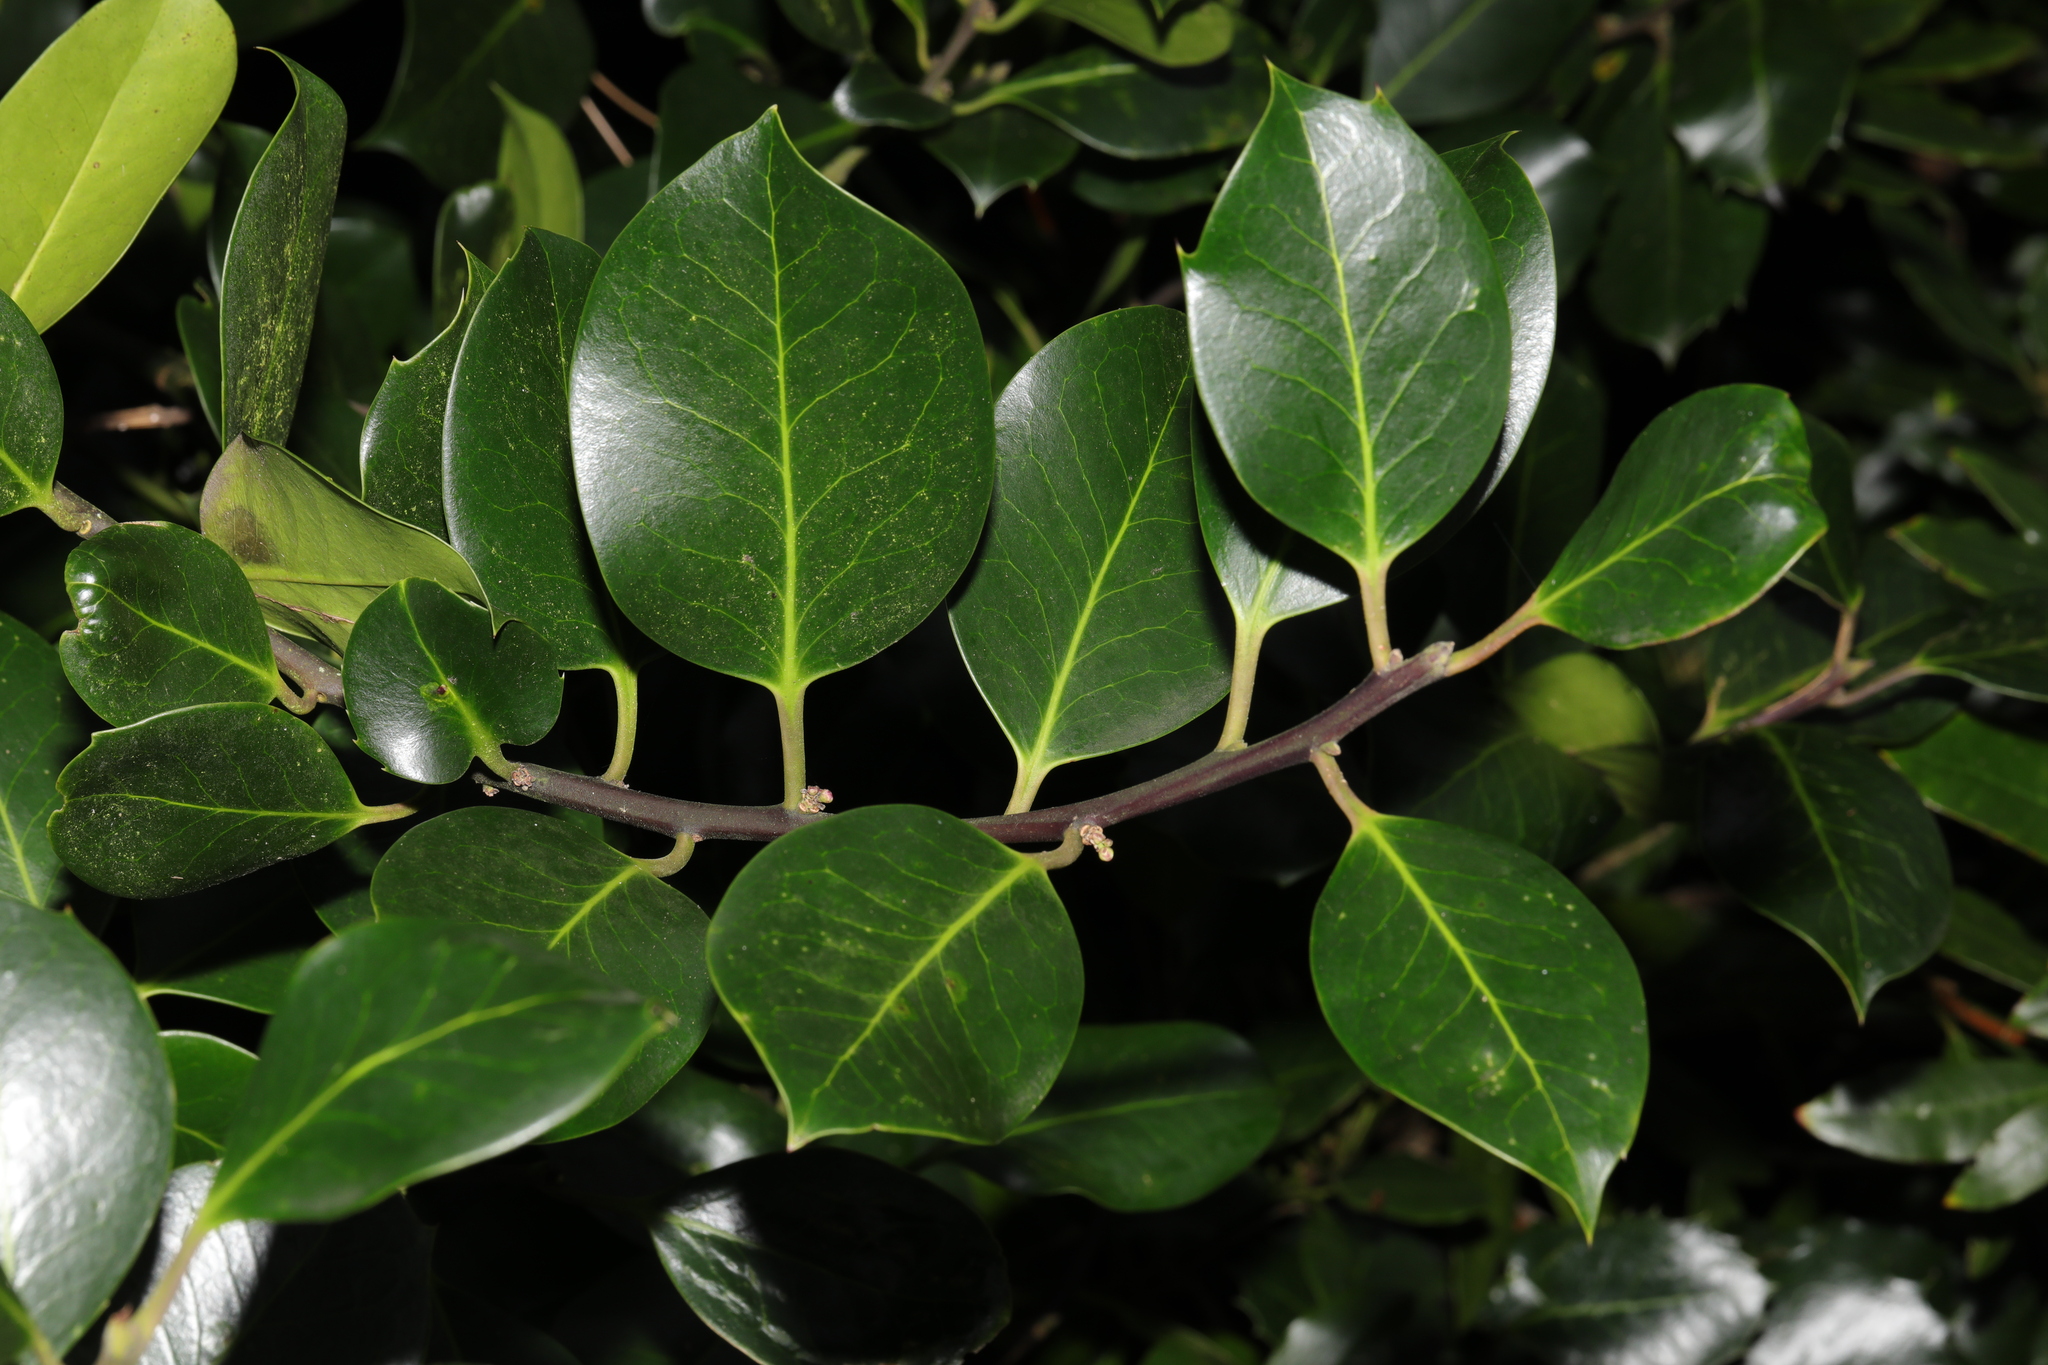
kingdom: Plantae
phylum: Tracheophyta
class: Magnoliopsida
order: Aquifoliales
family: Aquifoliaceae
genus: Ilex
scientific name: Ilex altaclerensis
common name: Highclere holly
